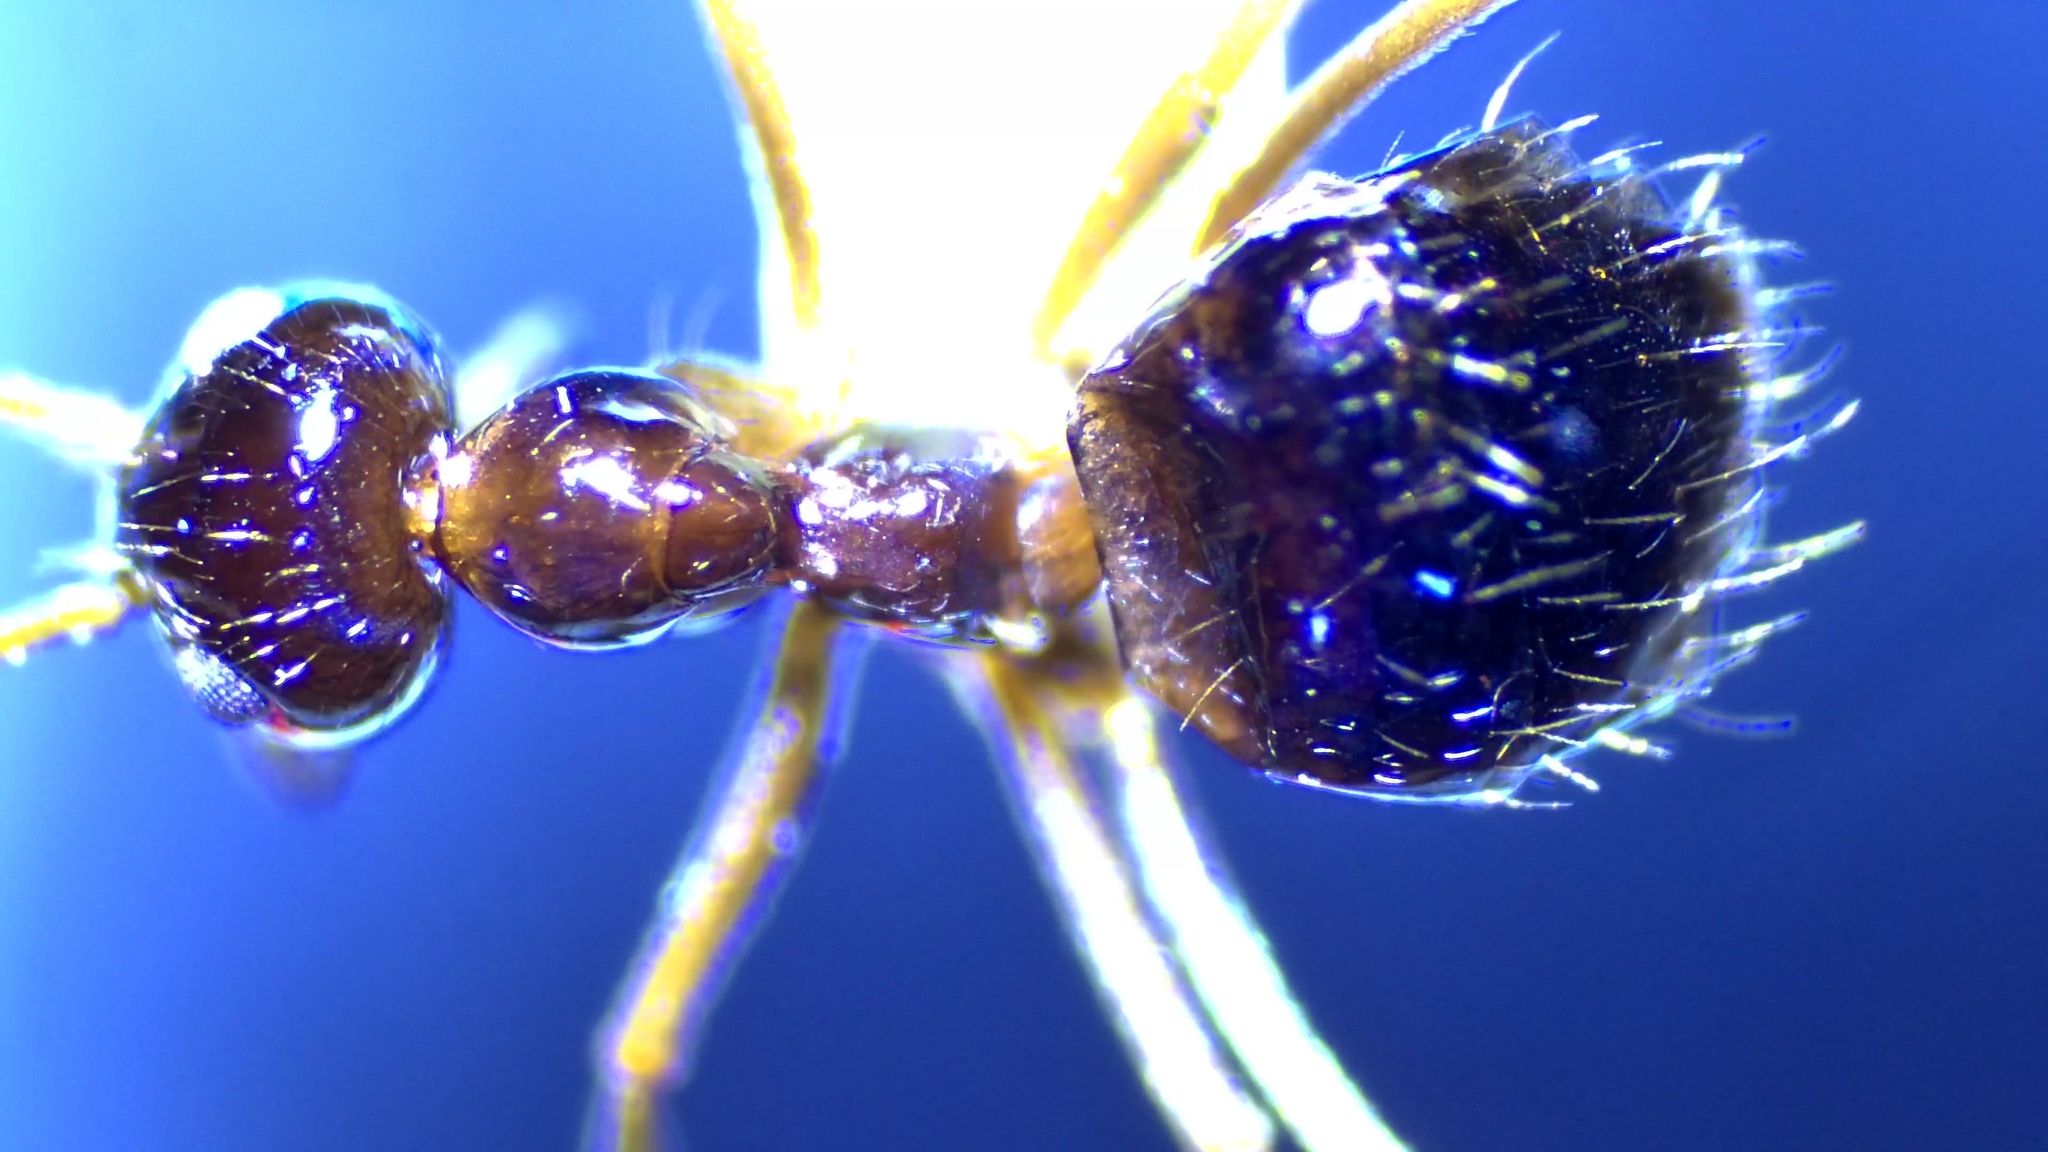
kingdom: Animalia
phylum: Arthropoda
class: Insecta
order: Hymenoptera
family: Formicidae
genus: Prenolepis
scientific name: Prenolepis imparis
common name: Small honey ant
